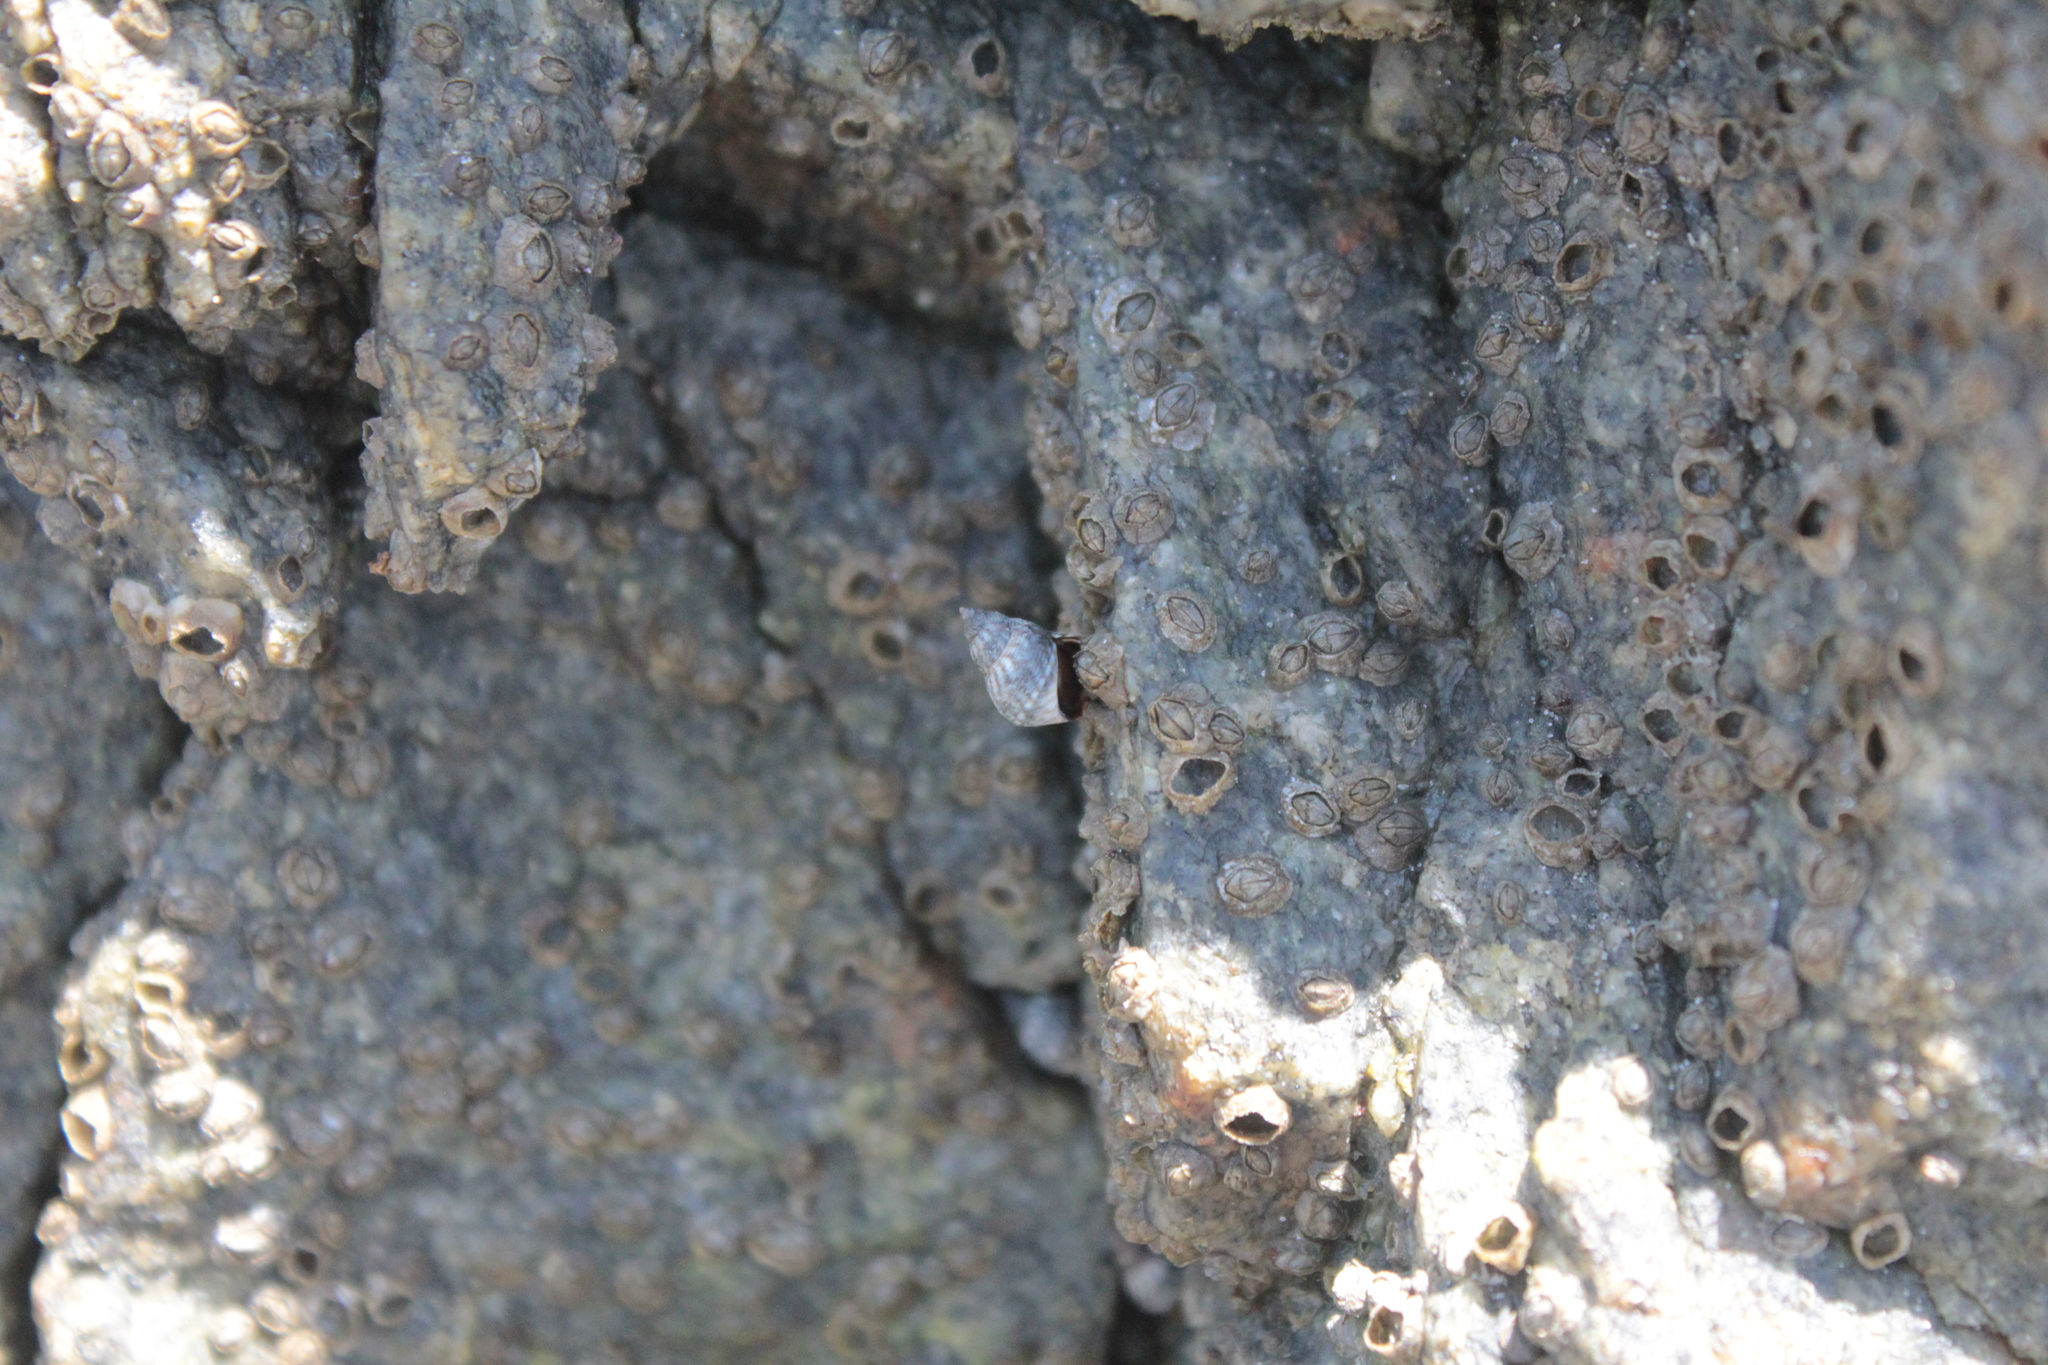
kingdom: Animalia
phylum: Mollusca
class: Gastropoda
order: Littorinimorpha
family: Littorinidae
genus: Echinolittorina
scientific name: Echinolittorina placida
